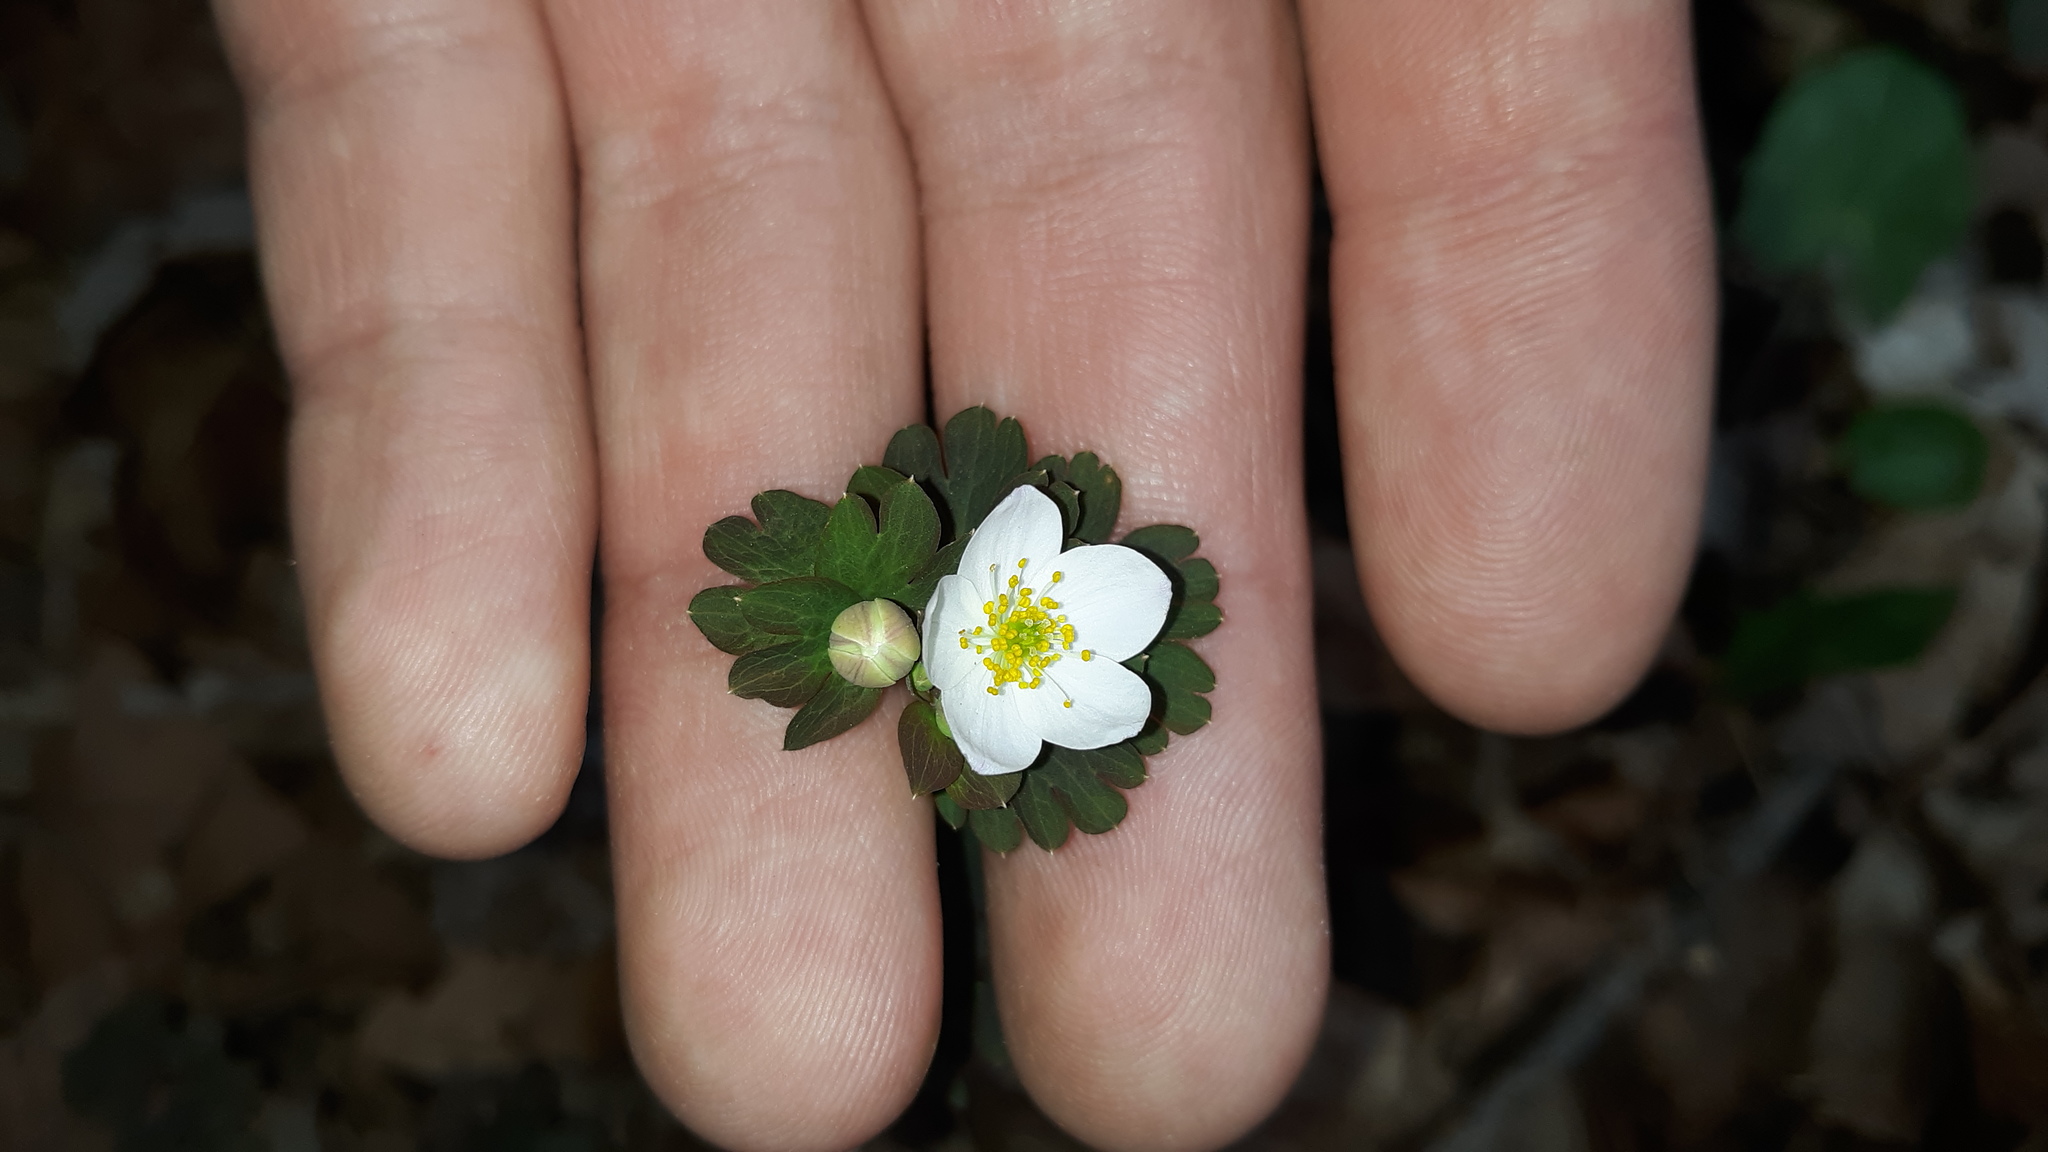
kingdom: Plantae
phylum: Tracheophyta
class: Magnoliopsida
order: Ranunculales
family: Ranunculaceae
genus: Enemion
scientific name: Enemion biternatum
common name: Eastern false rue-anemone
